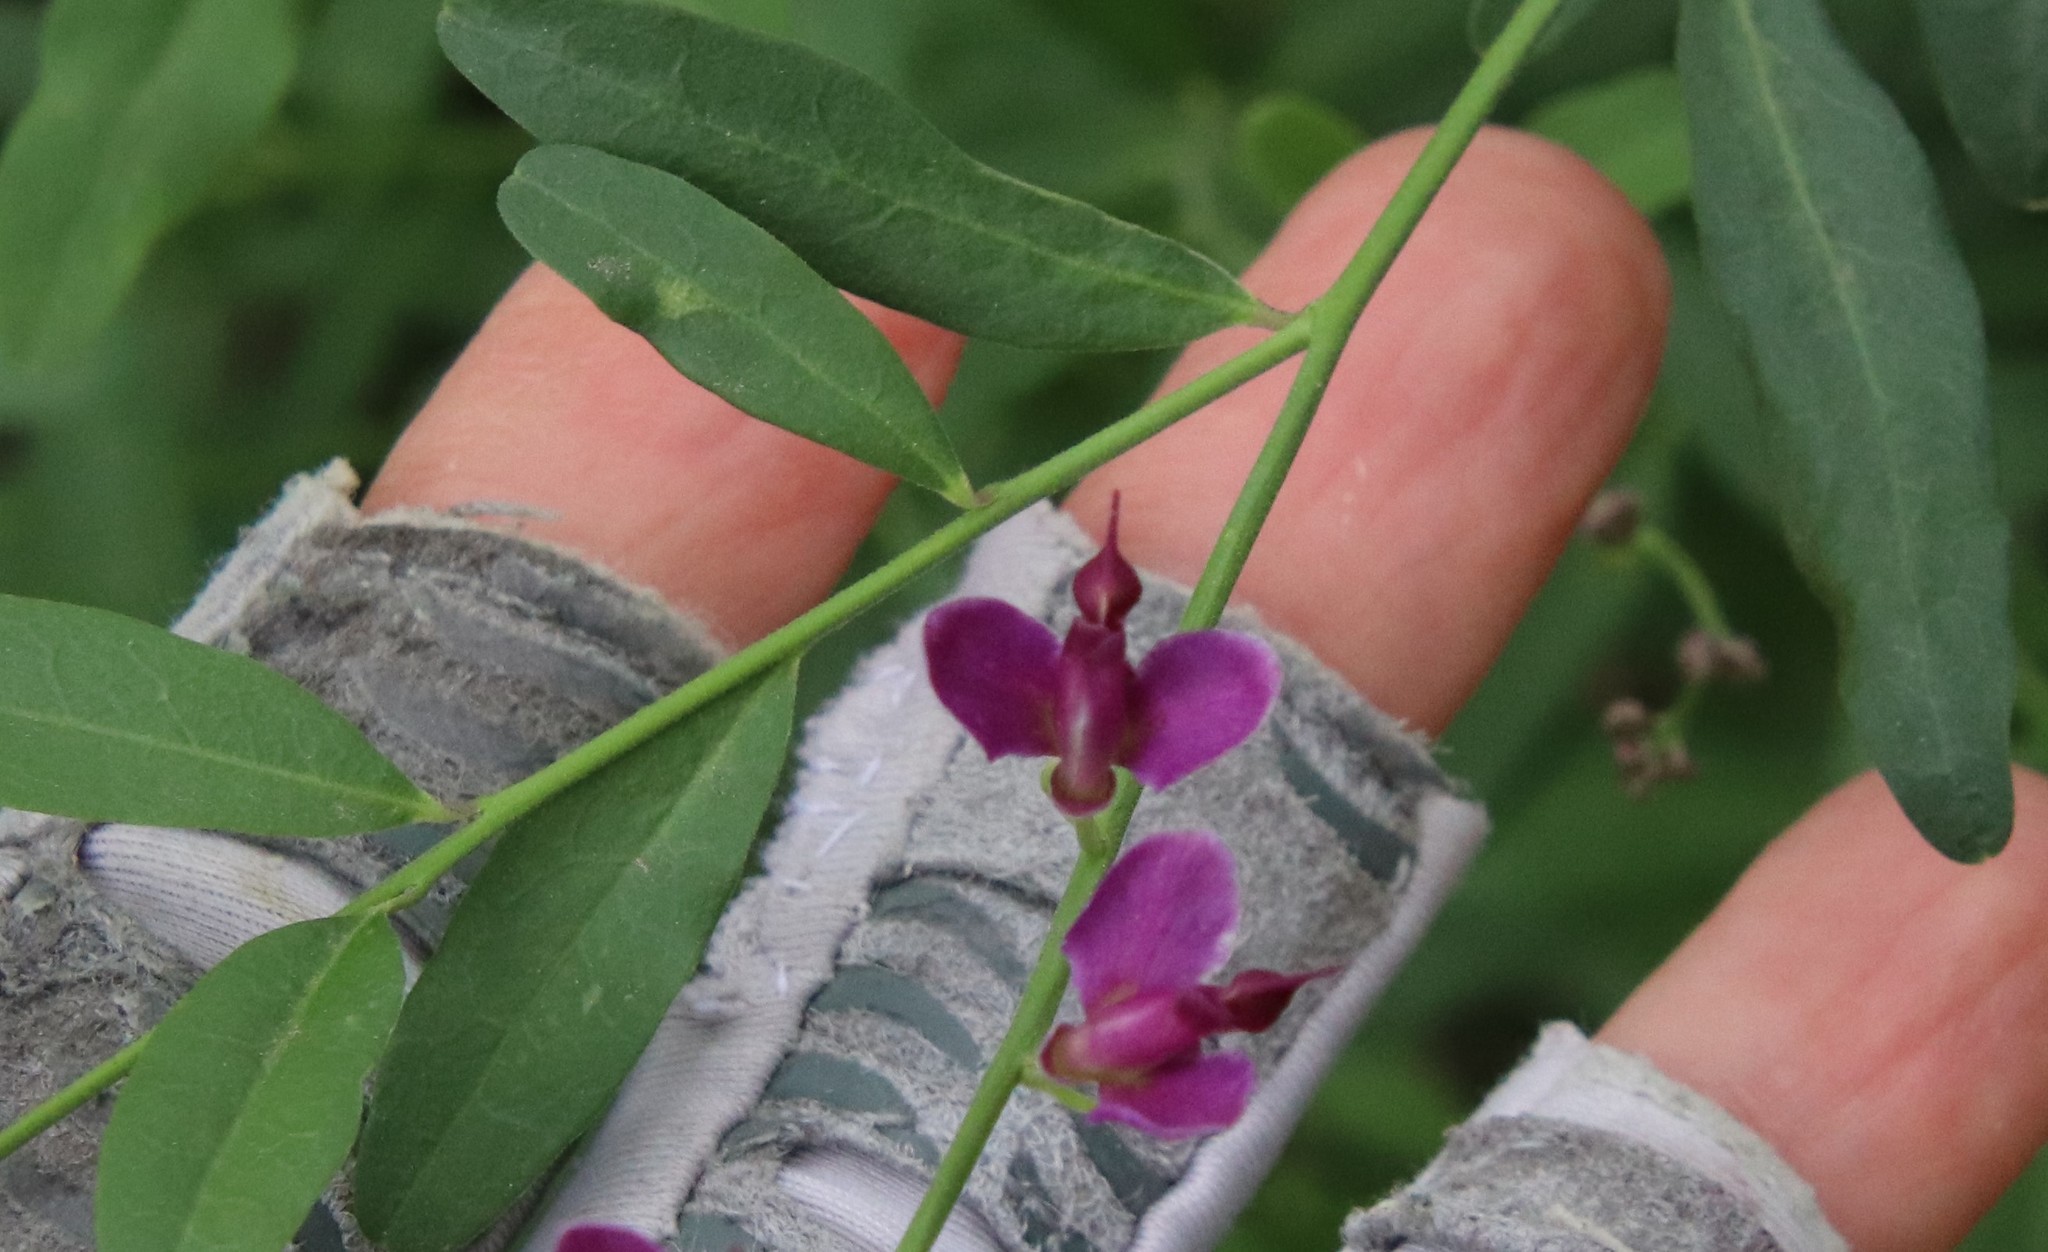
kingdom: Plantae
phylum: Tracheophyta
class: Magnoliopsida
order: Fabales
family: Polygalaceae
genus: Rhinotropis
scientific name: Rhinotropis cornuta
